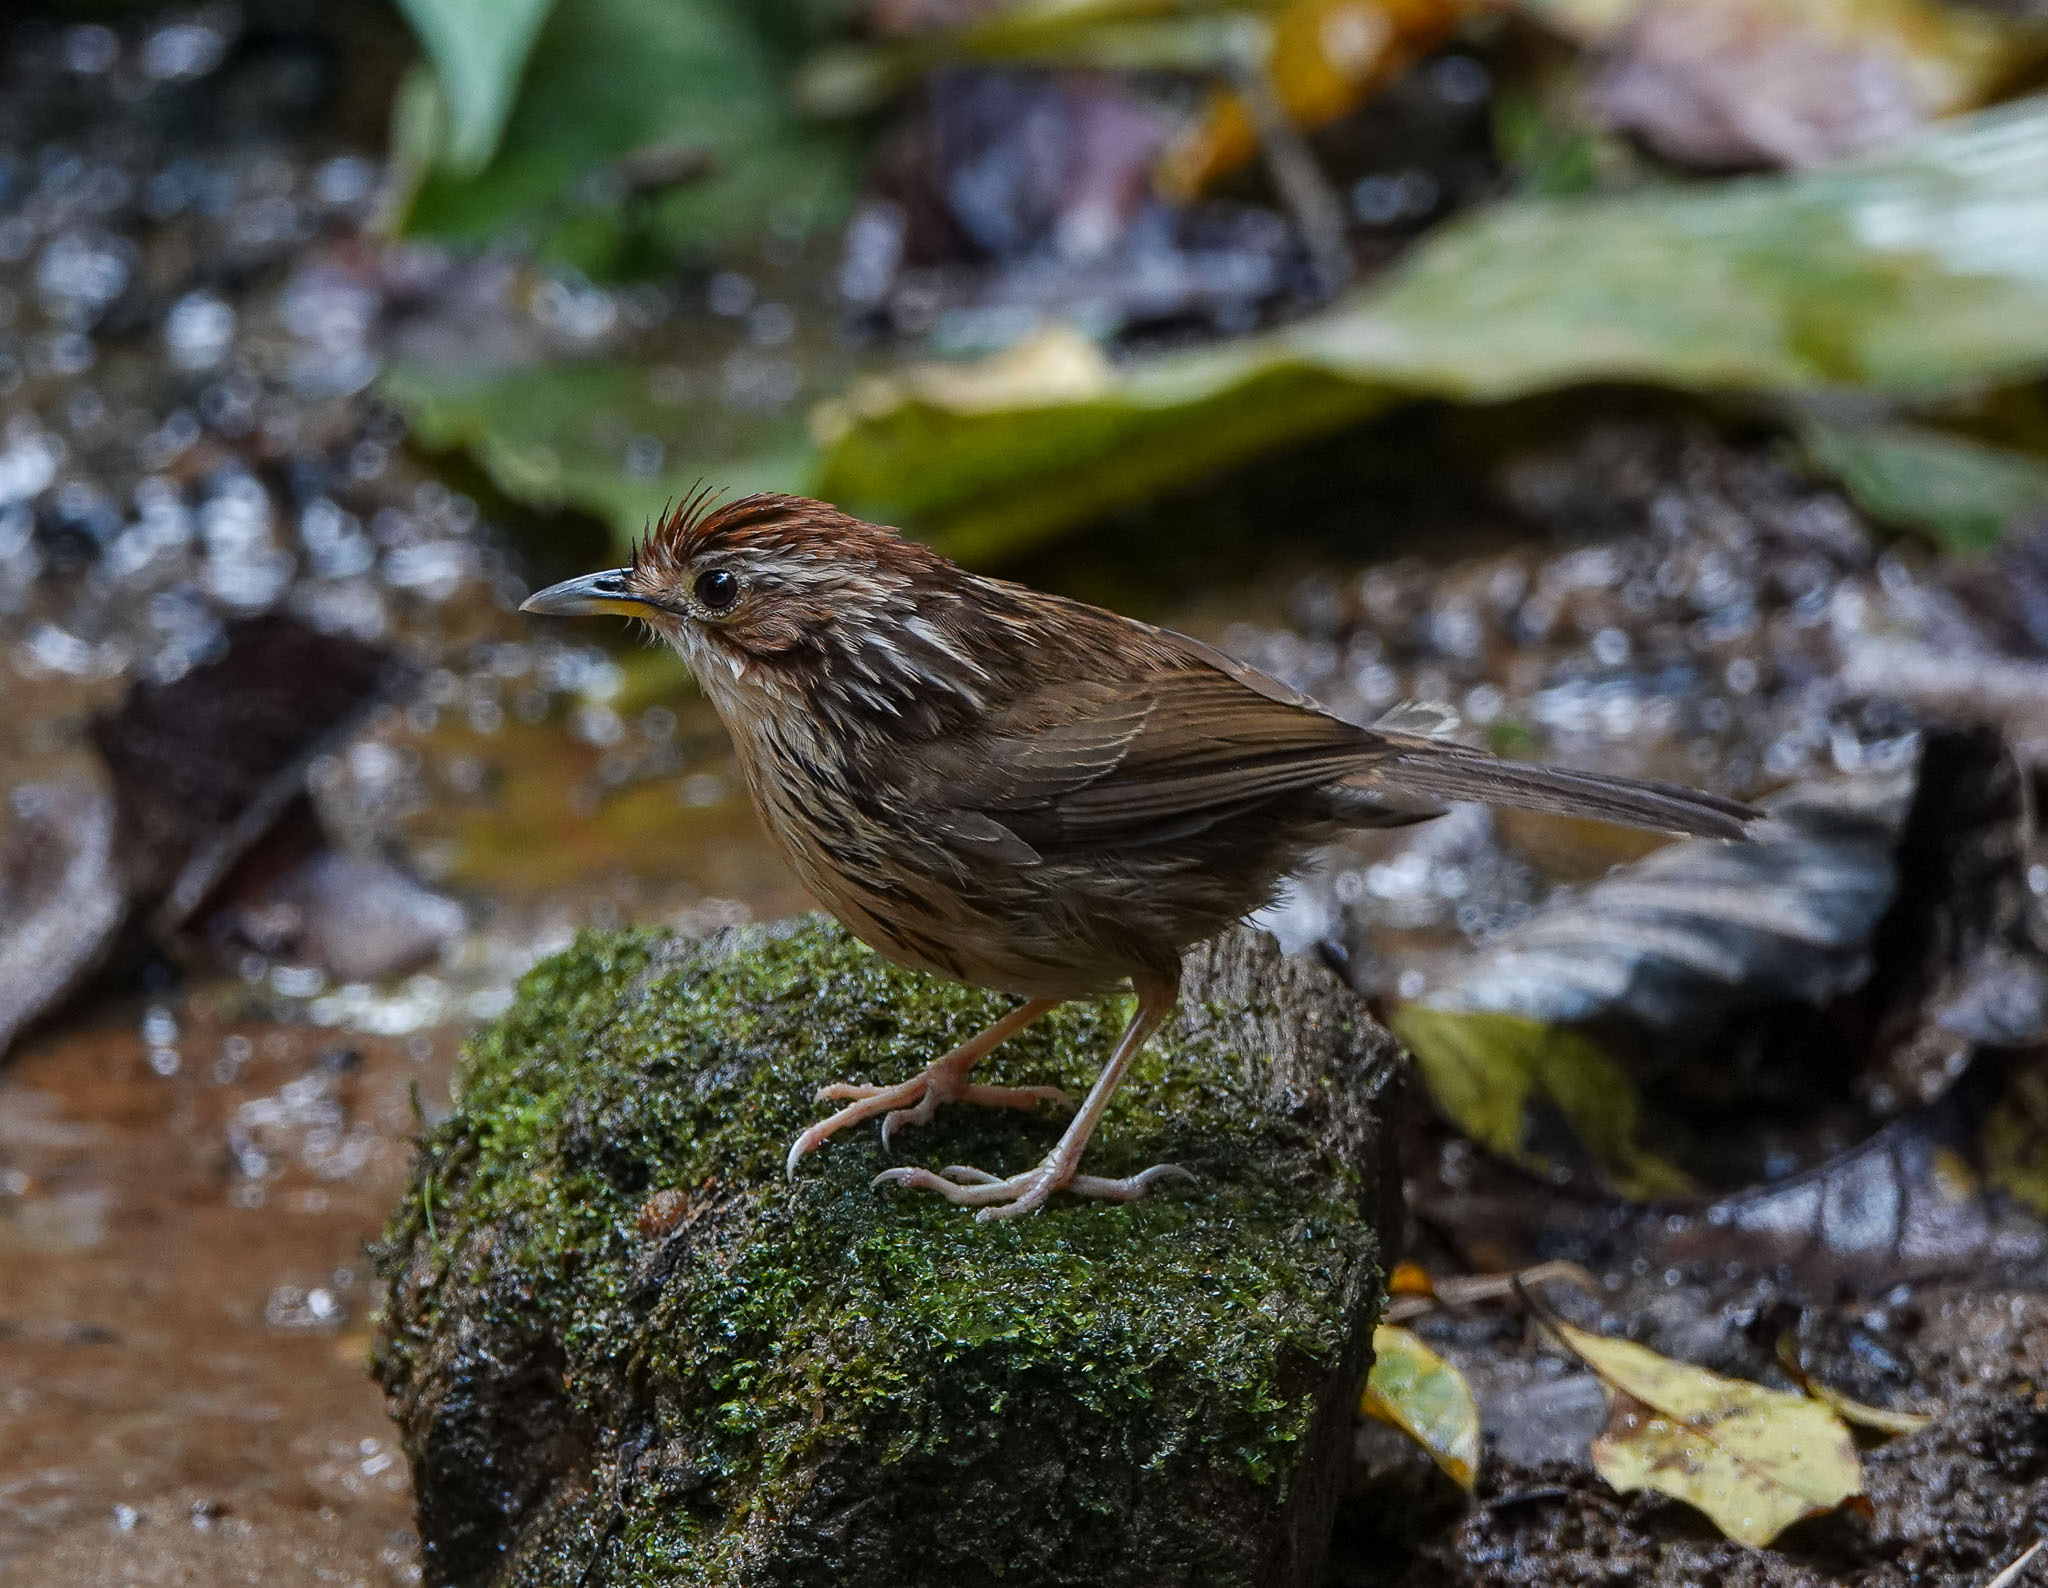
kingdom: Animalia
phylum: Chordata
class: Aves
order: Passeriformes
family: Pellorneidae
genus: Pellorneum
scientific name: Pellorneum ruficeps
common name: Puff-throated babbler
